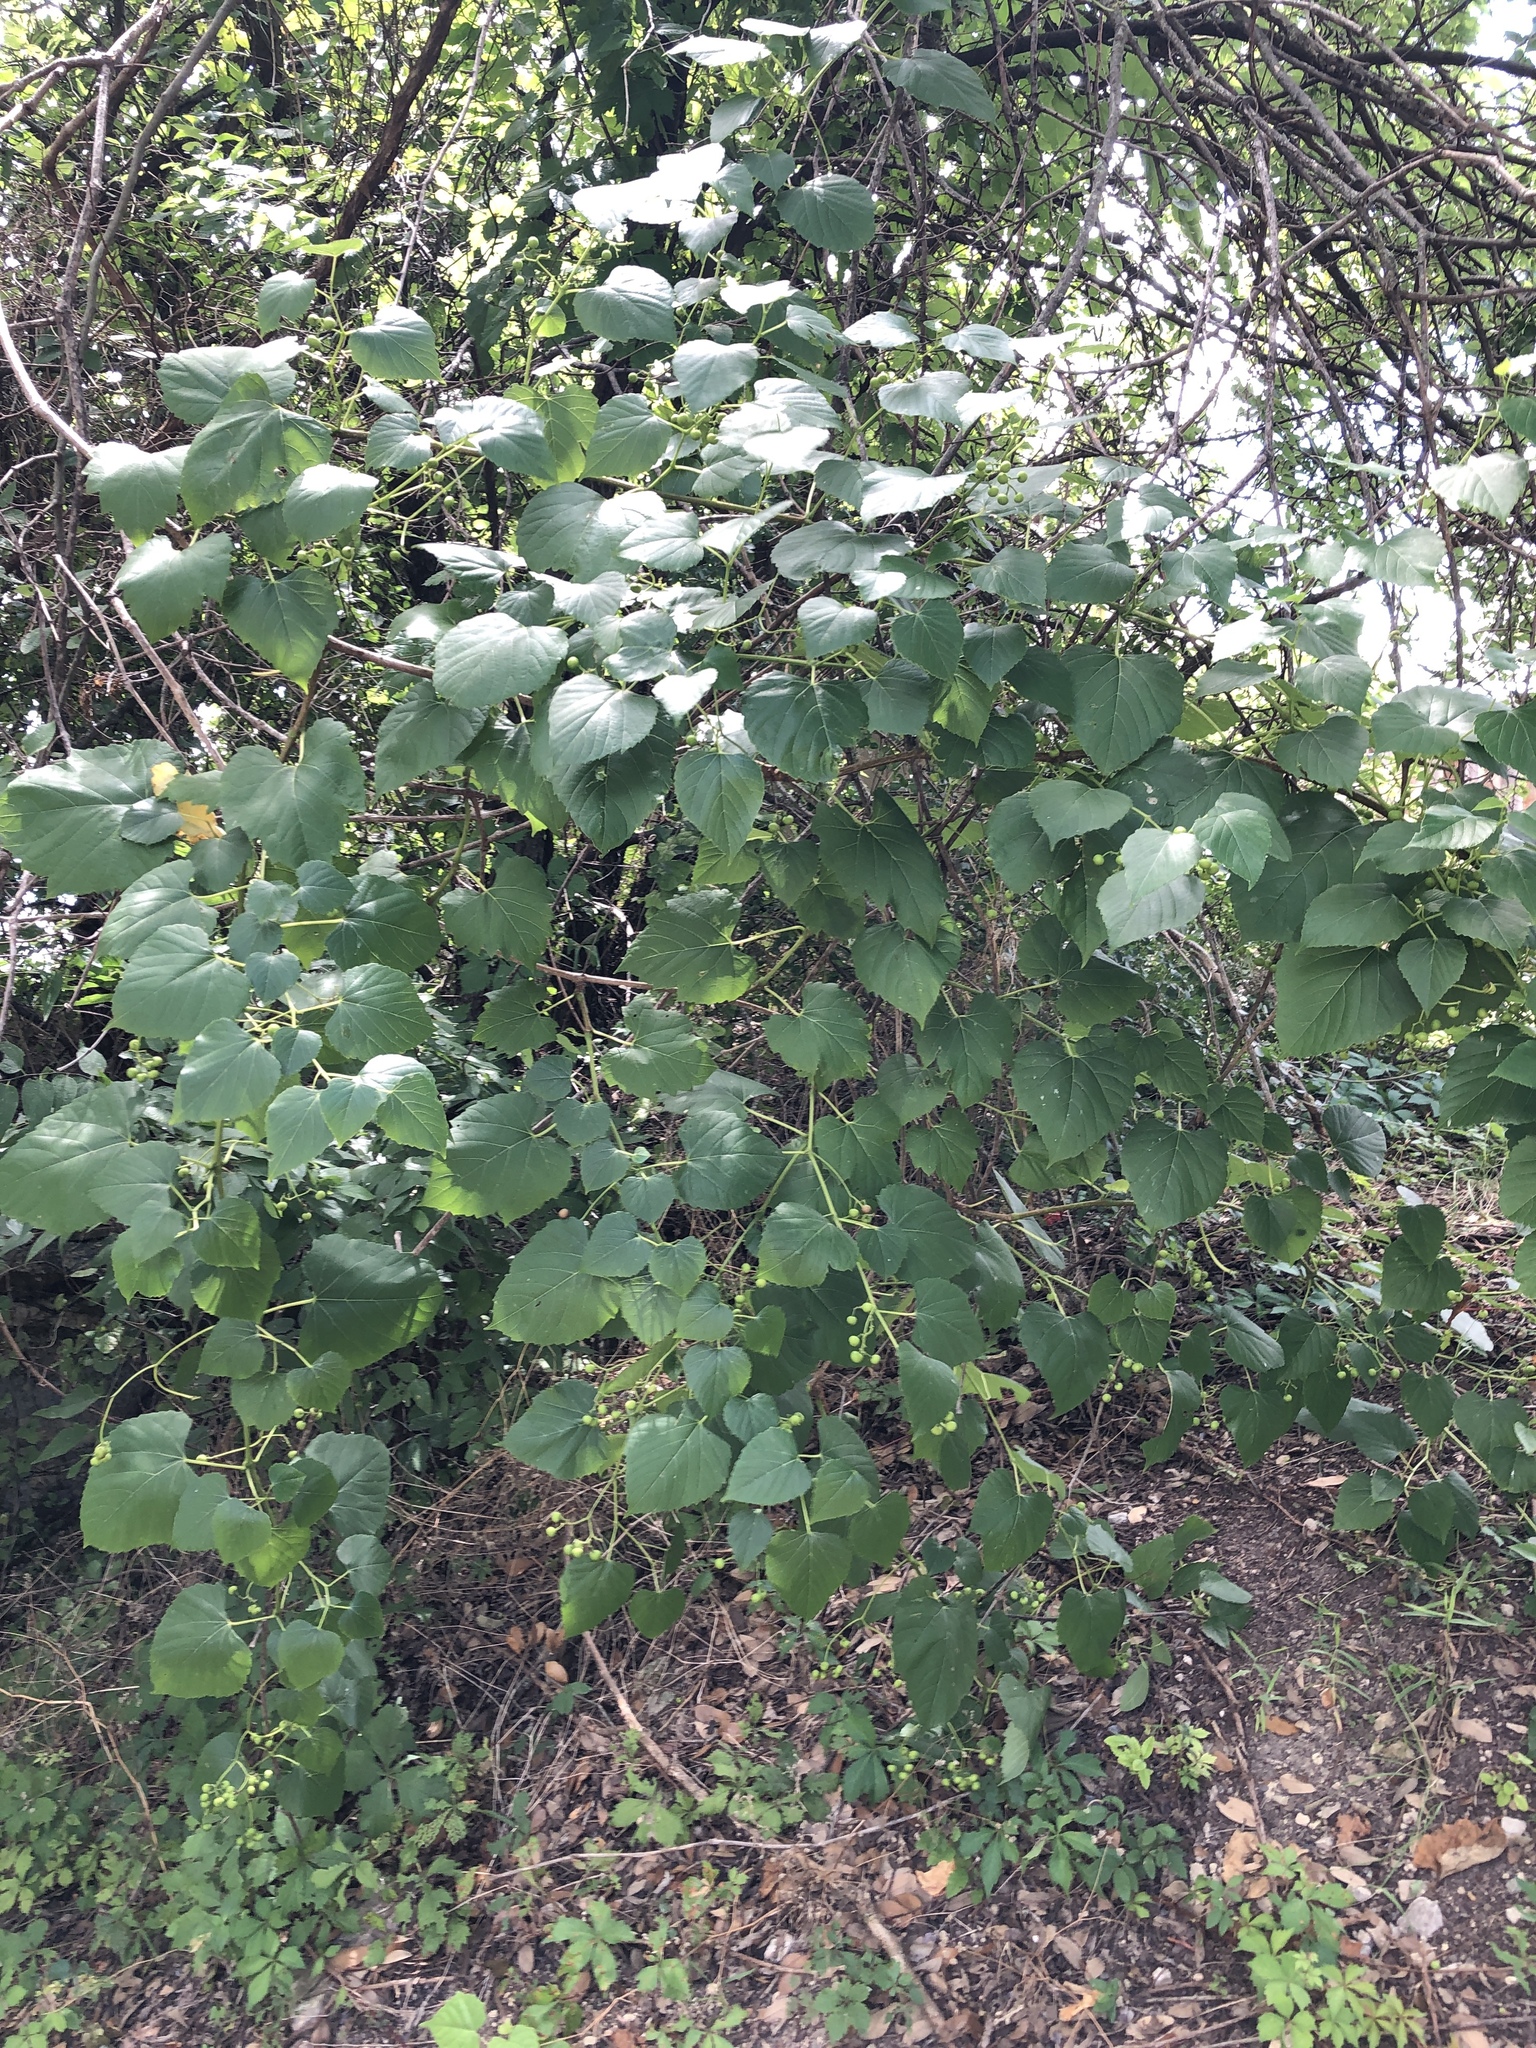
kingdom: Plantae
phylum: Tracheophyta
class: Magnoliopsida
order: Vitales
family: Vitaceae
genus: Ampelopsis
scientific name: Ampelopsis cordata
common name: Heart-leaf ampelopsis
